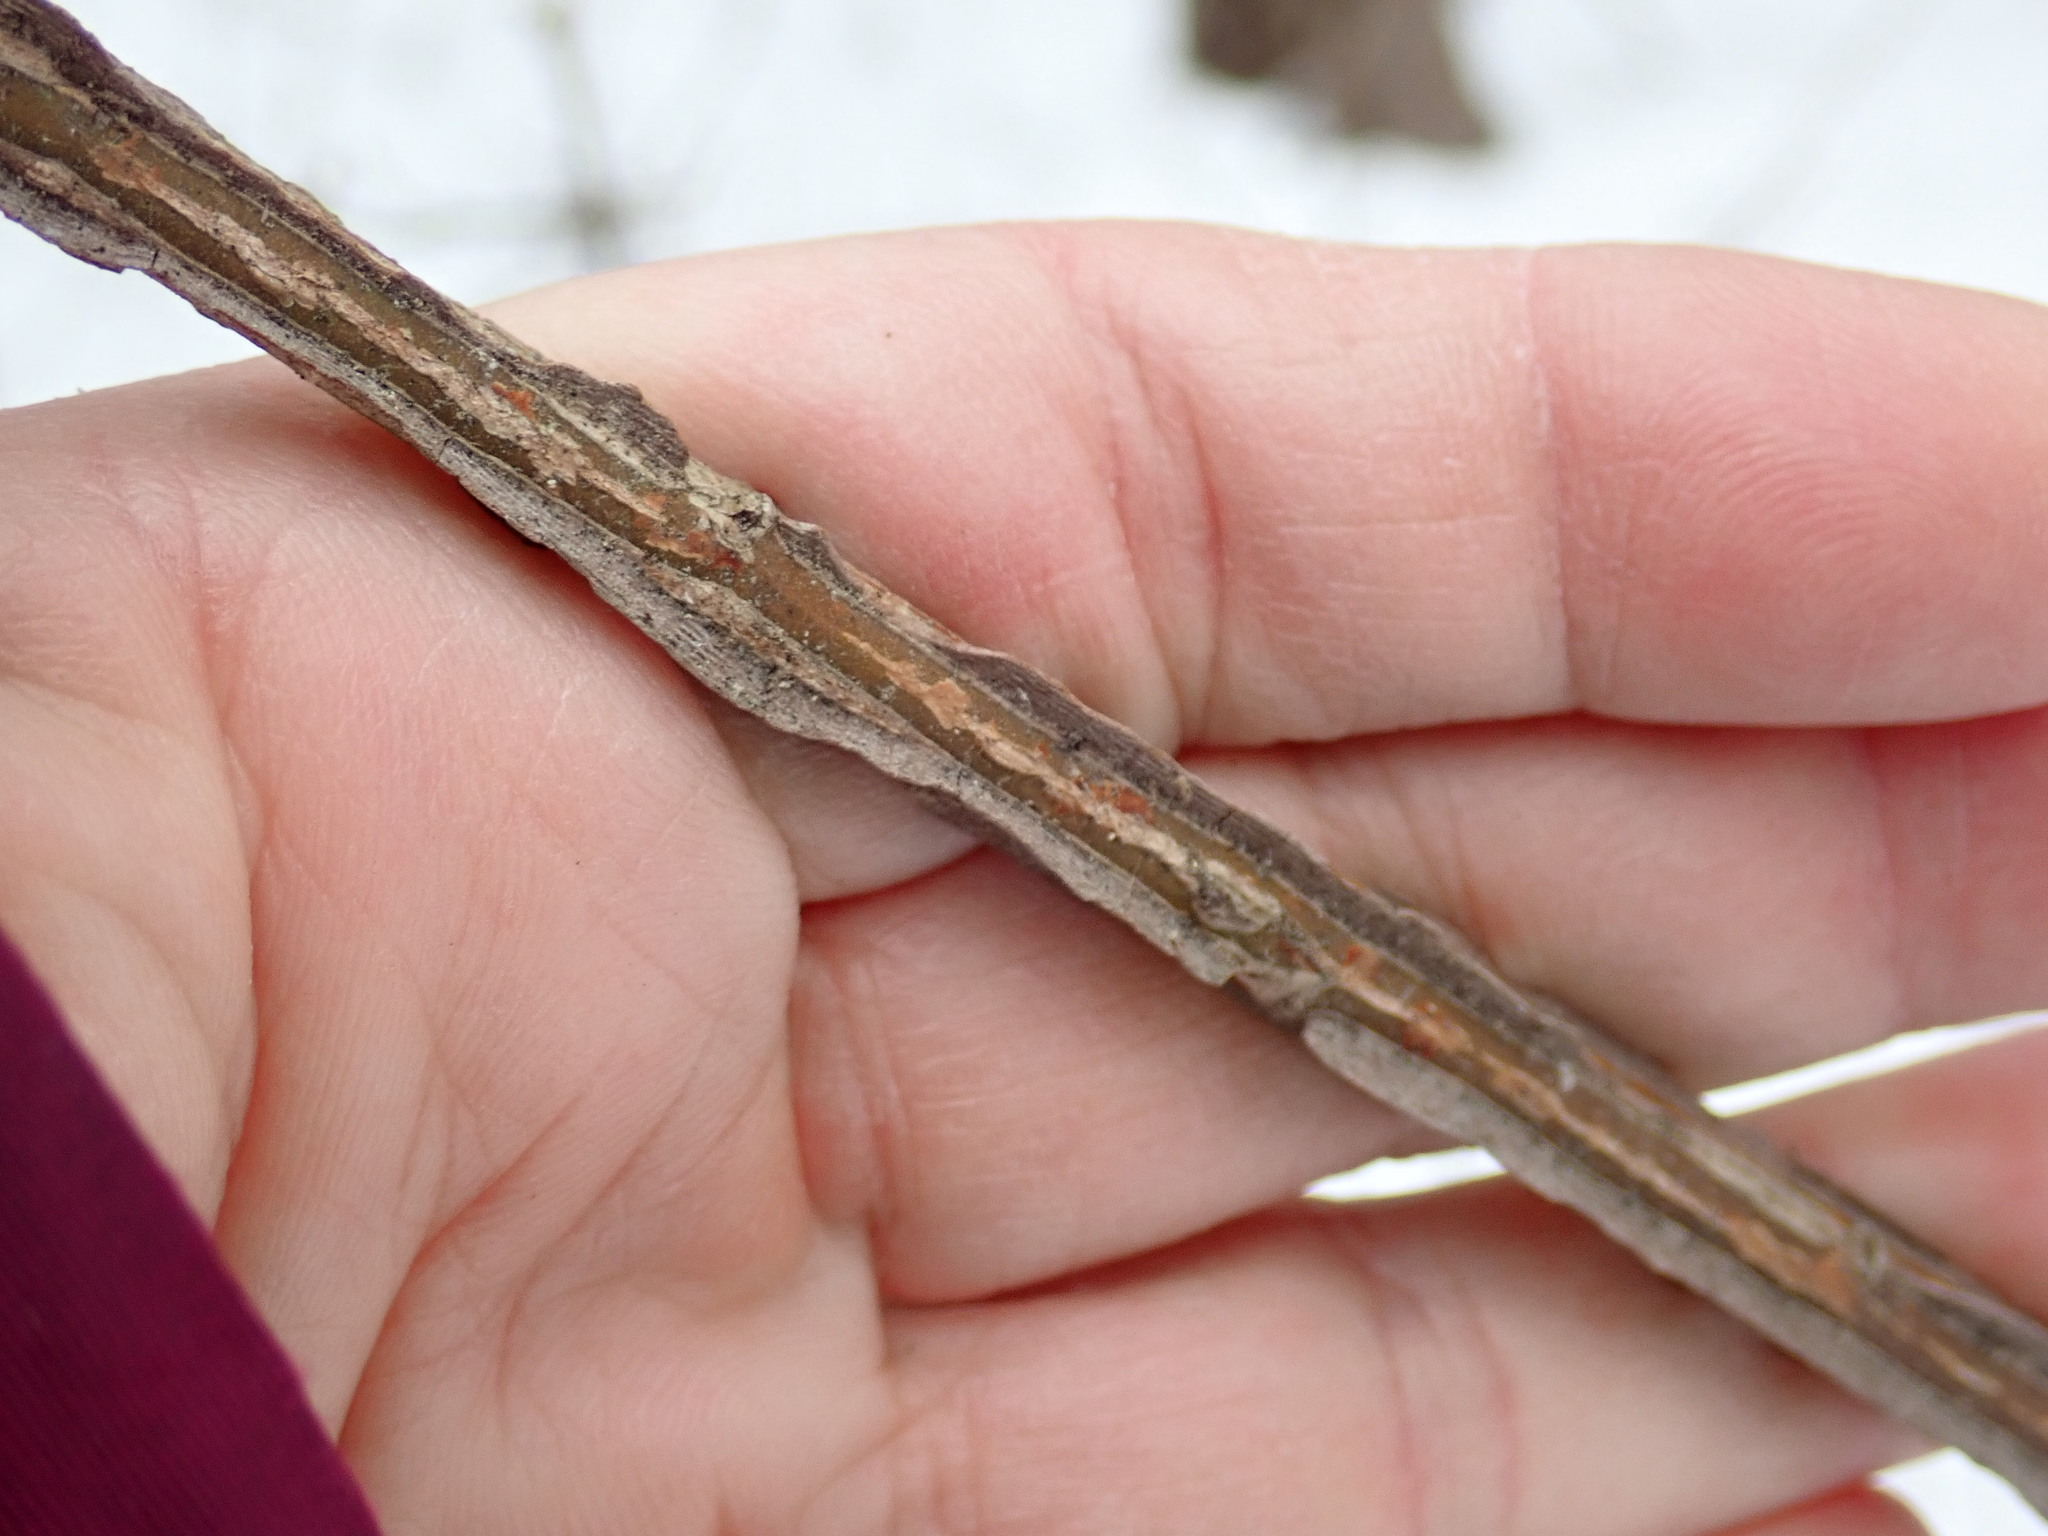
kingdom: Plantae
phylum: Tracheophyta
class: Magnoliopsida
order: Celastrales
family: Celastraceae
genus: Euonymus
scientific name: Euonymus alatus
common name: Winged euonymus
